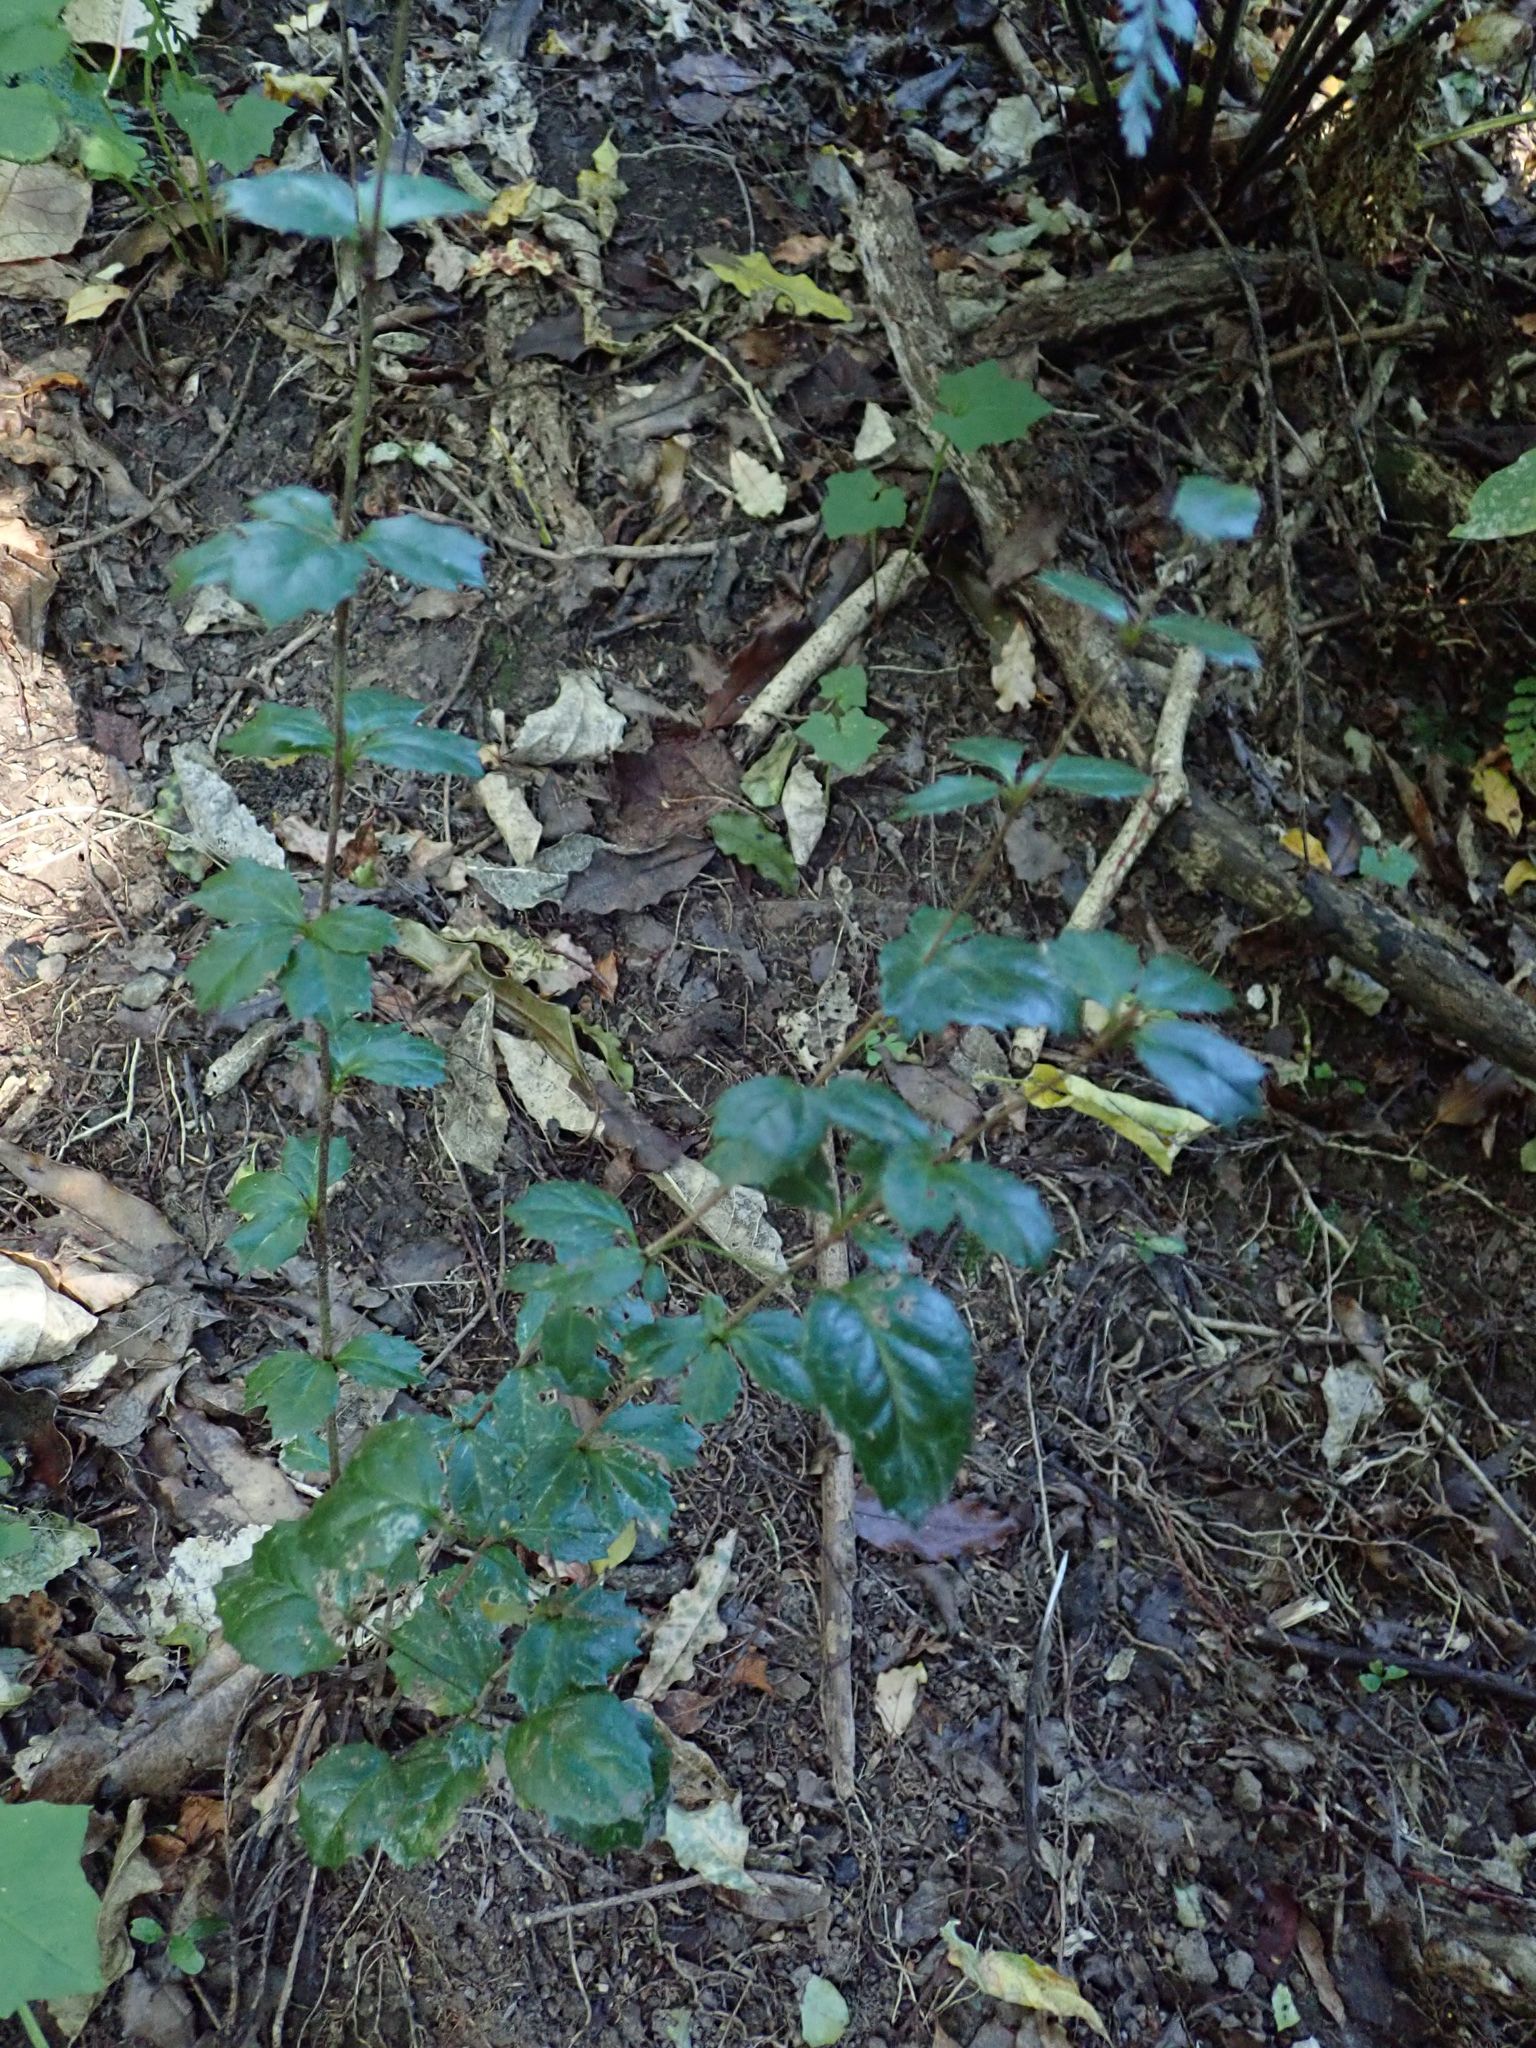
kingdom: Plantae
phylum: Tracheophyta
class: Magnoliopsida
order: Ranunculales
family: Berberidaceae
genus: Berberis
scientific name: Berberis darwinii
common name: Darwin's barberry
